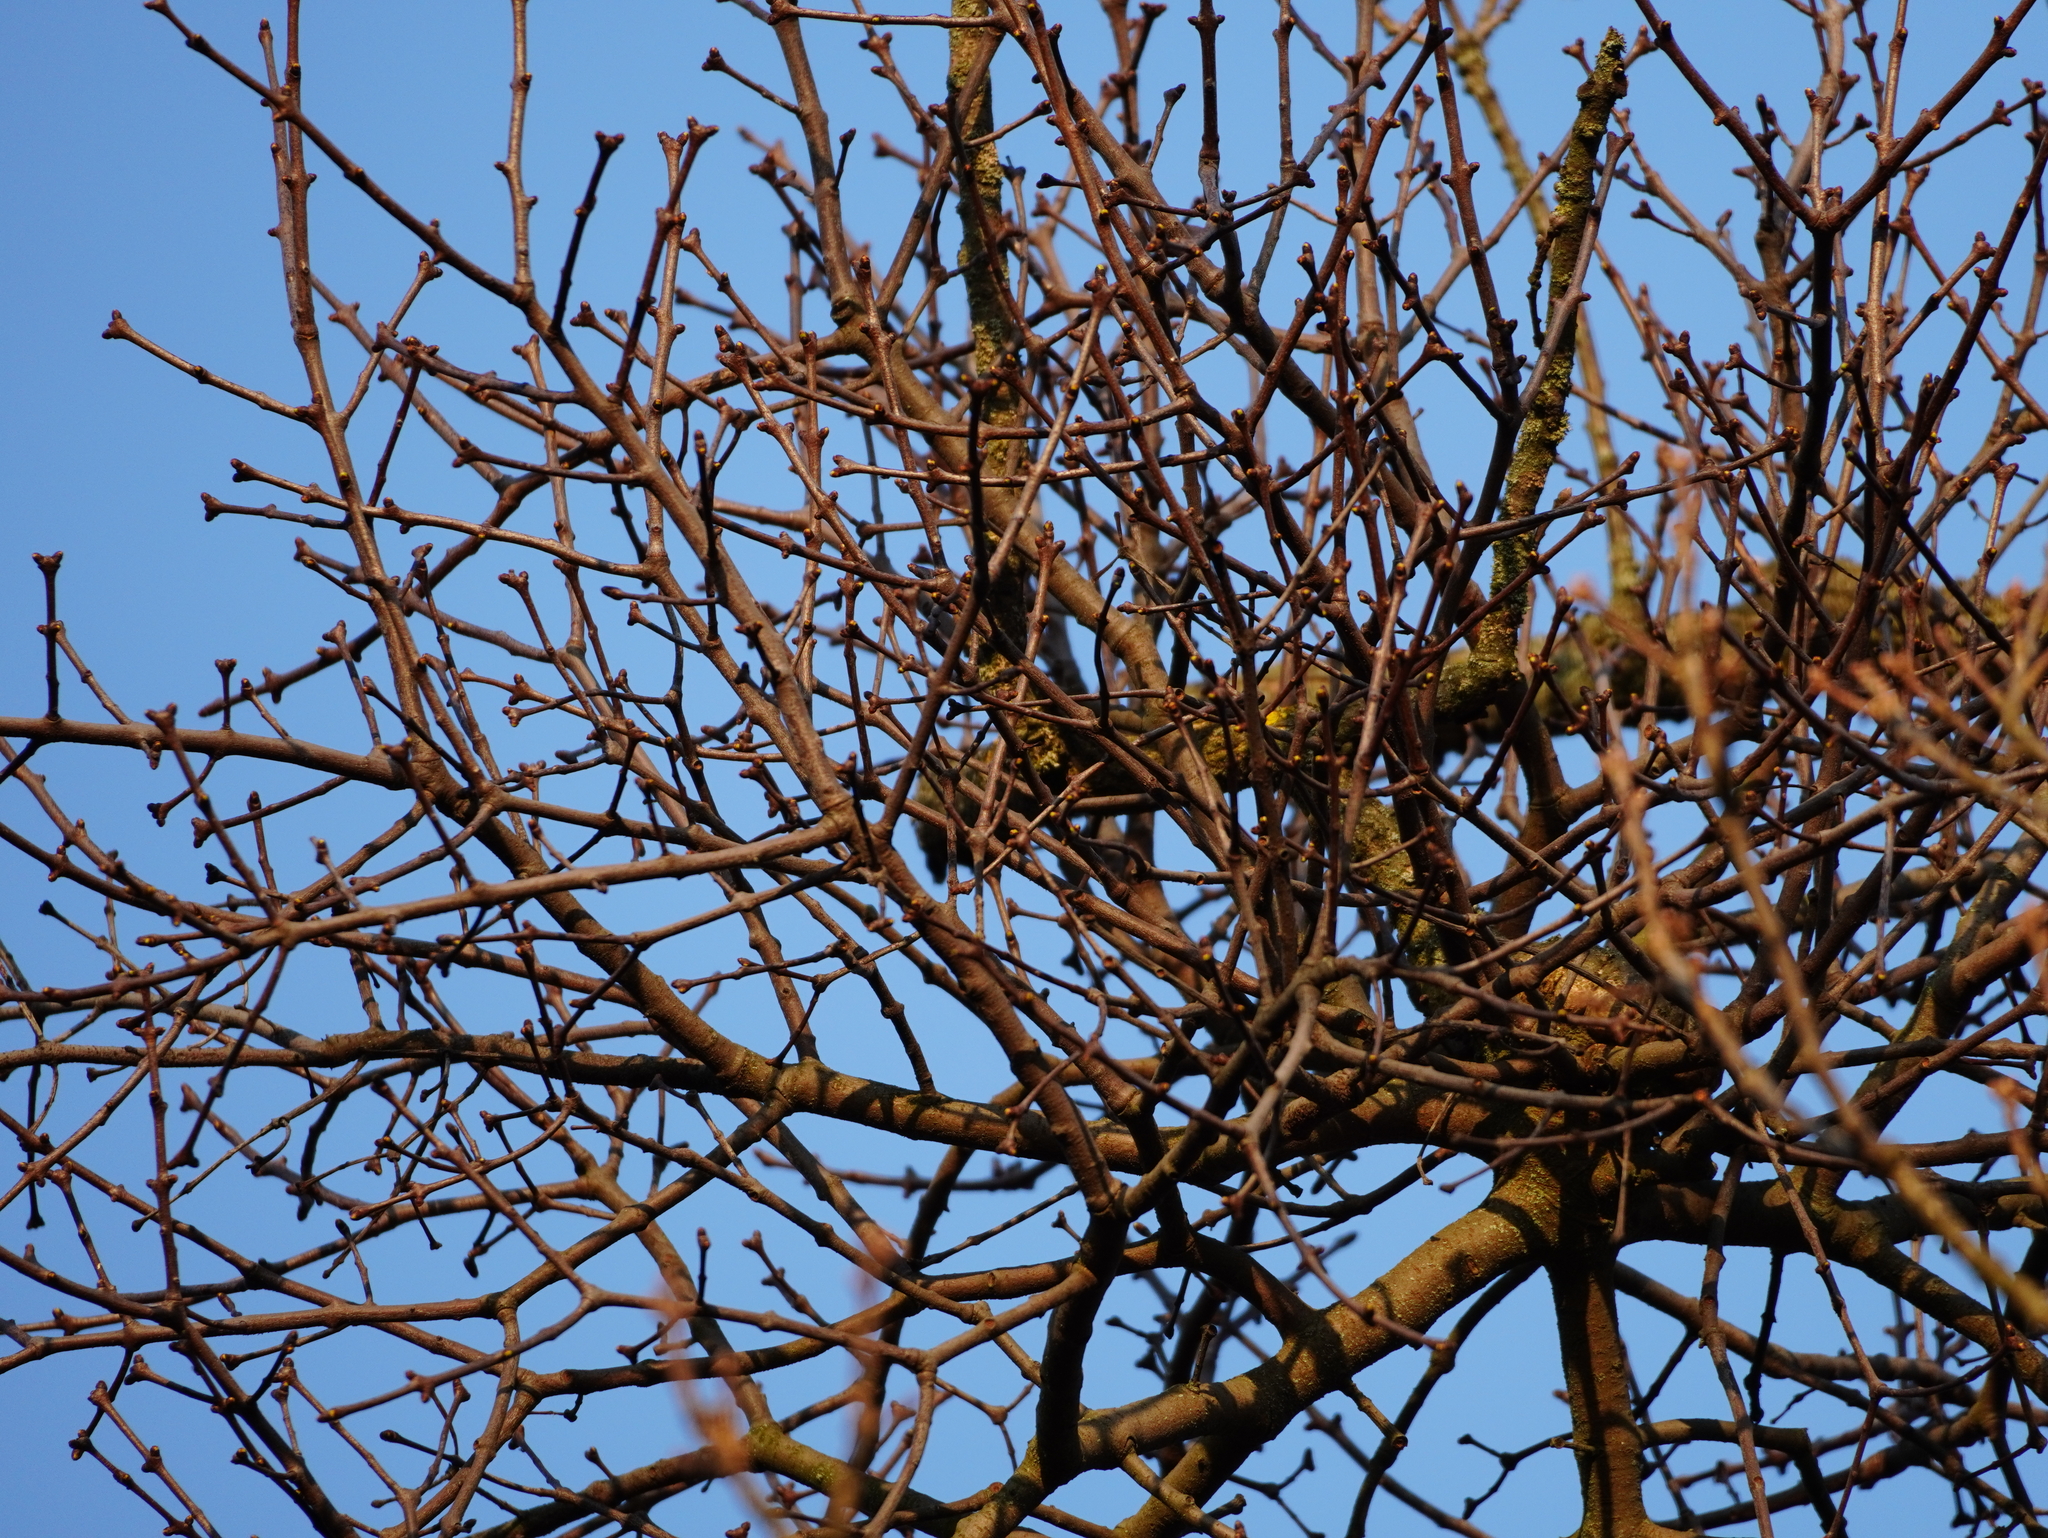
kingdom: Plantae
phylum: Tracheophyta
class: Magnoliopsida
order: Santalales
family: Loranthaceae
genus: Loranthus
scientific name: Loranthus europaeus
